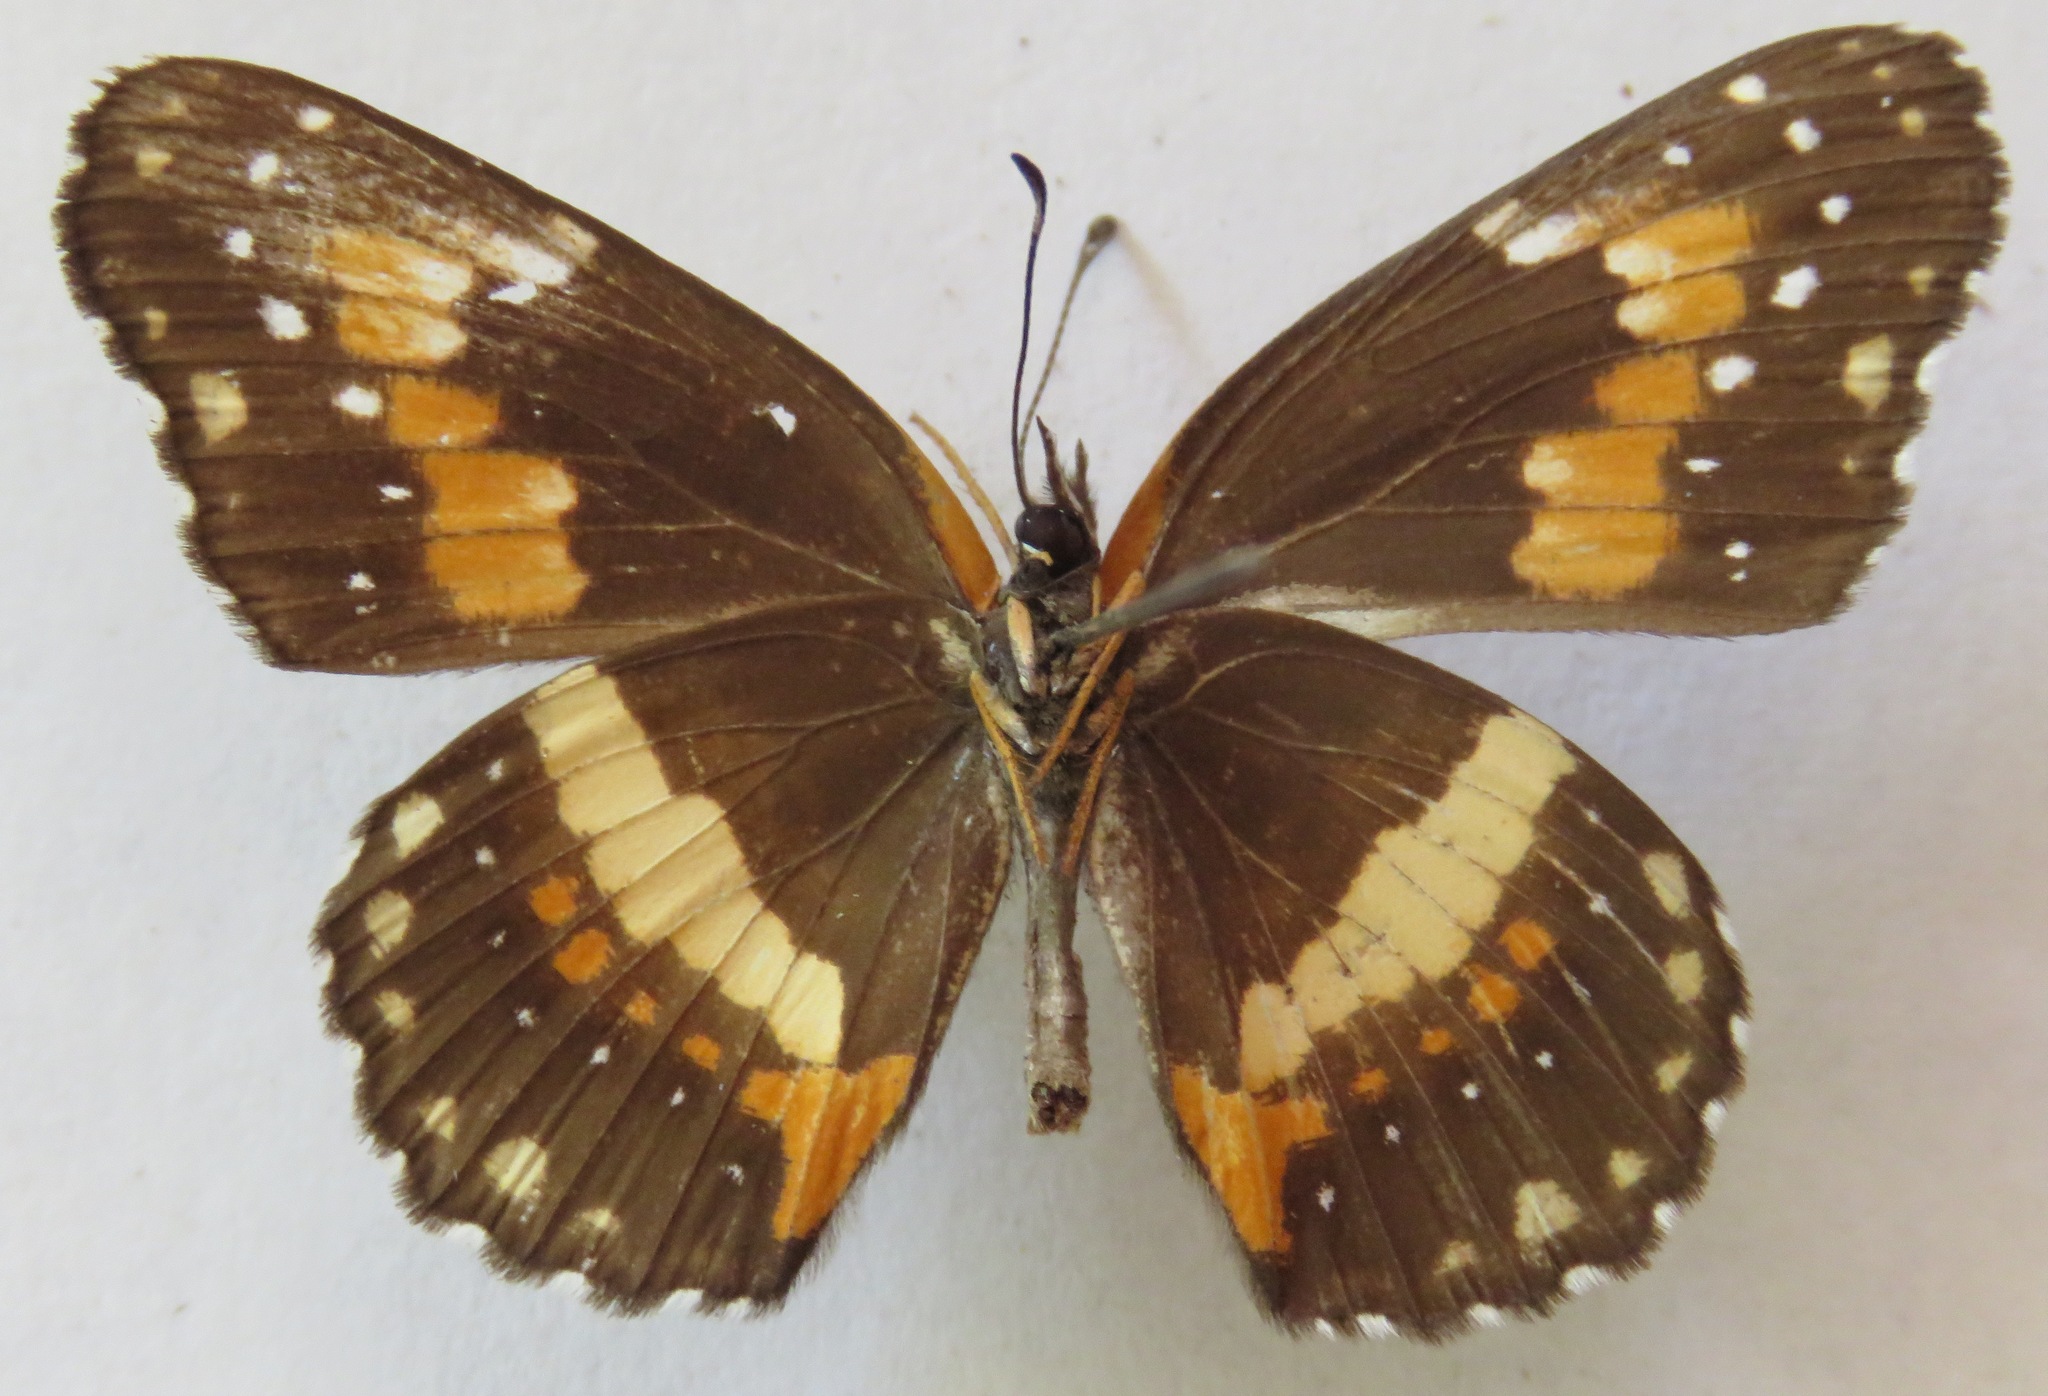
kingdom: Animalia
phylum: Arthropoda
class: Insecta
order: Lepidoptera
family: Nymphalidae
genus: Chlosyne
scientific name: Chlosyne lacinia
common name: Bordered patch
